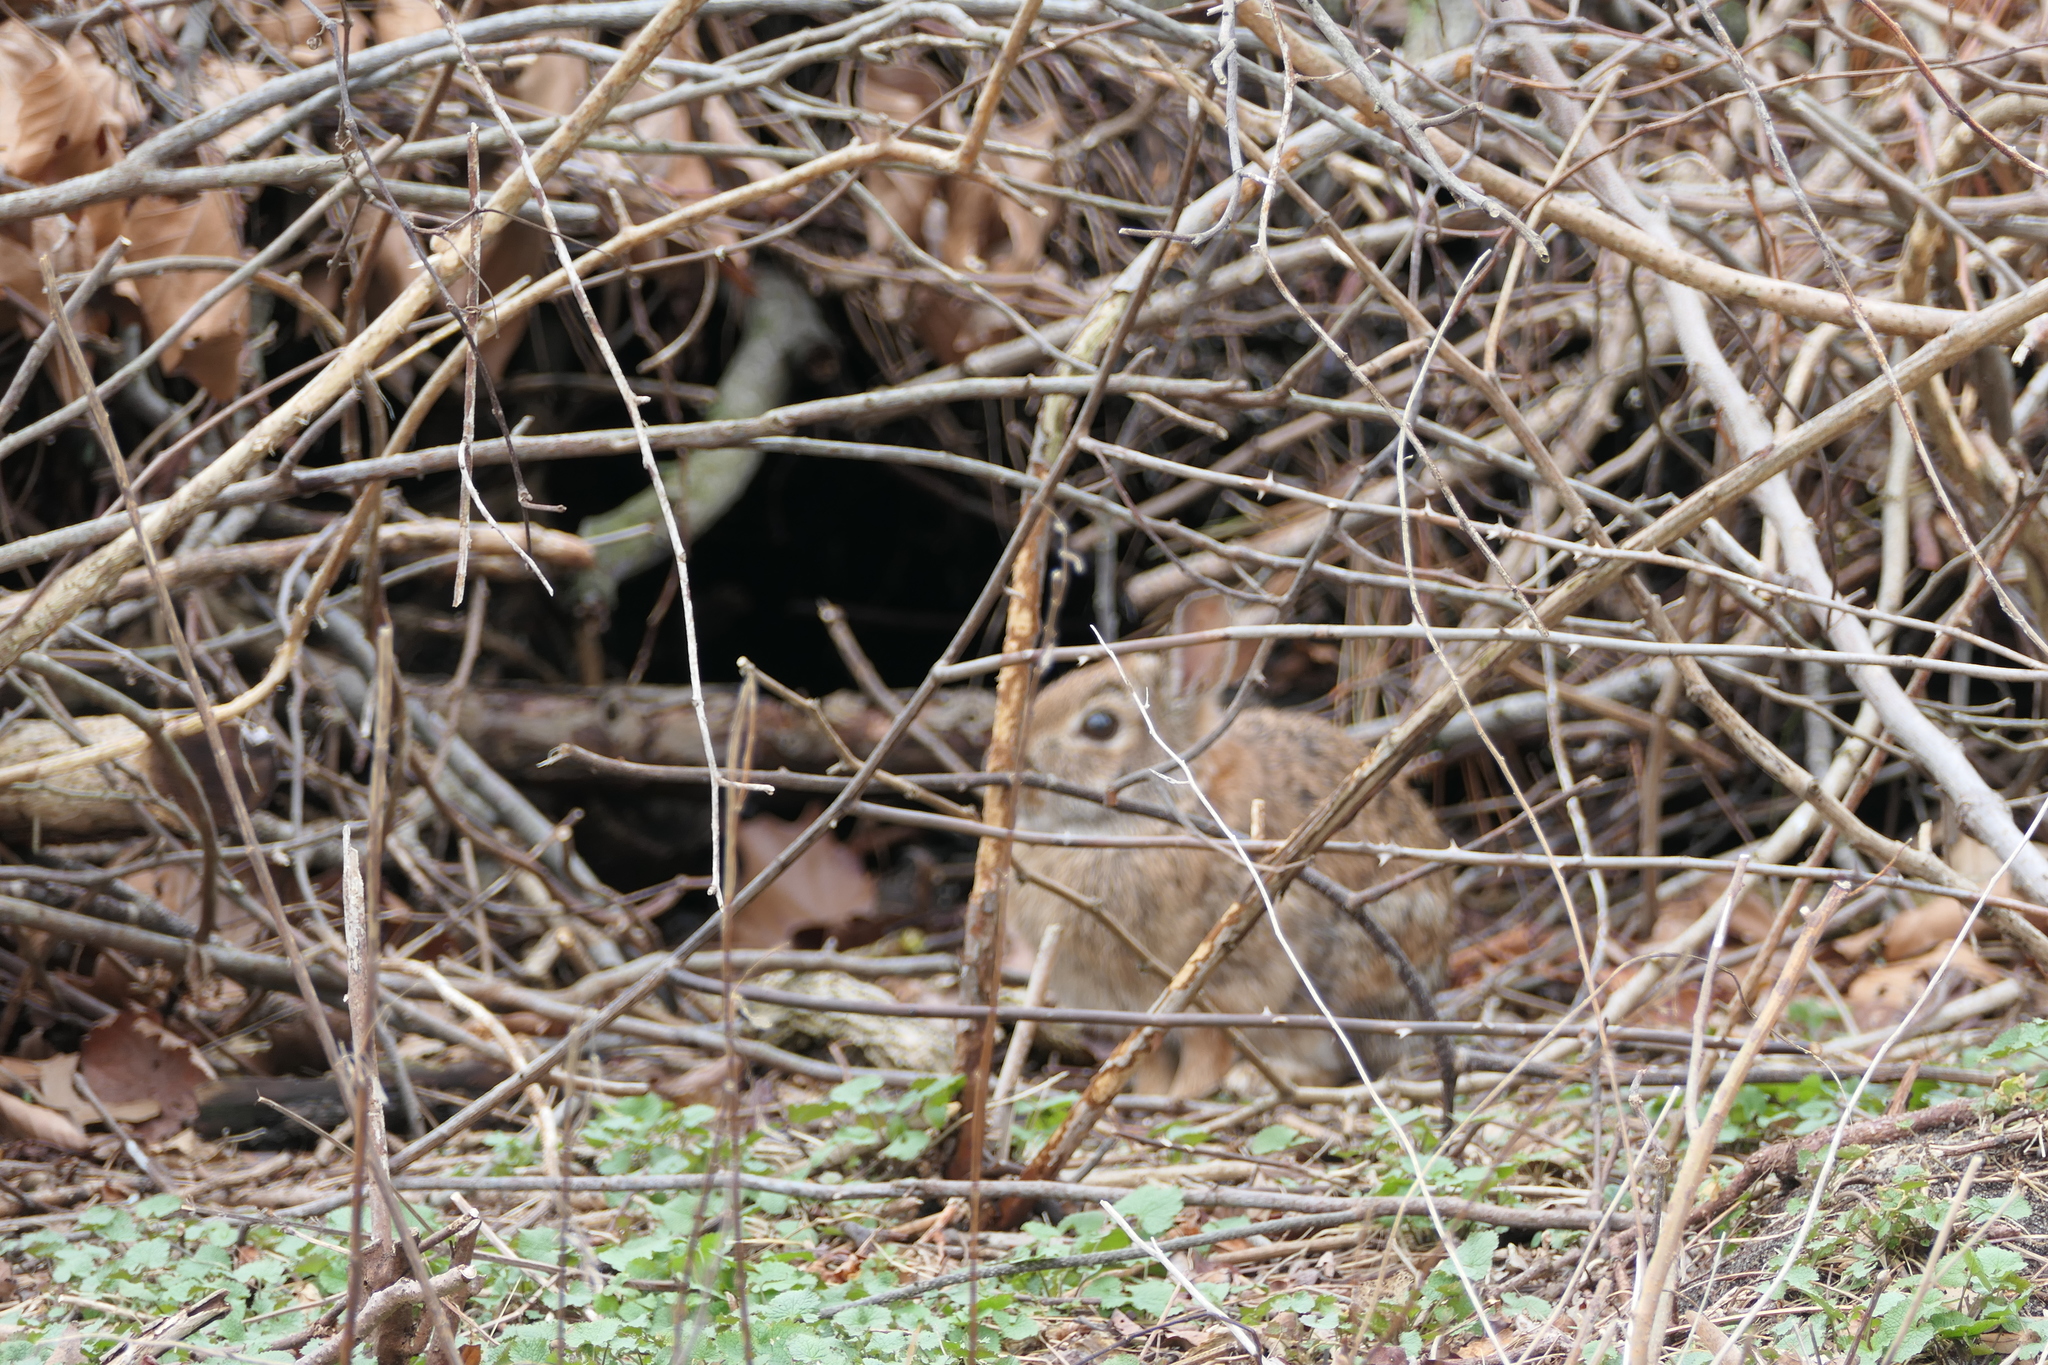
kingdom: Animalia
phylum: Chordata
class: Mammalia
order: Lagomorpha
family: Leporidae
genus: Sylvilagus
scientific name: Sylvilagus floridanus
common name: Eastern cottontail
